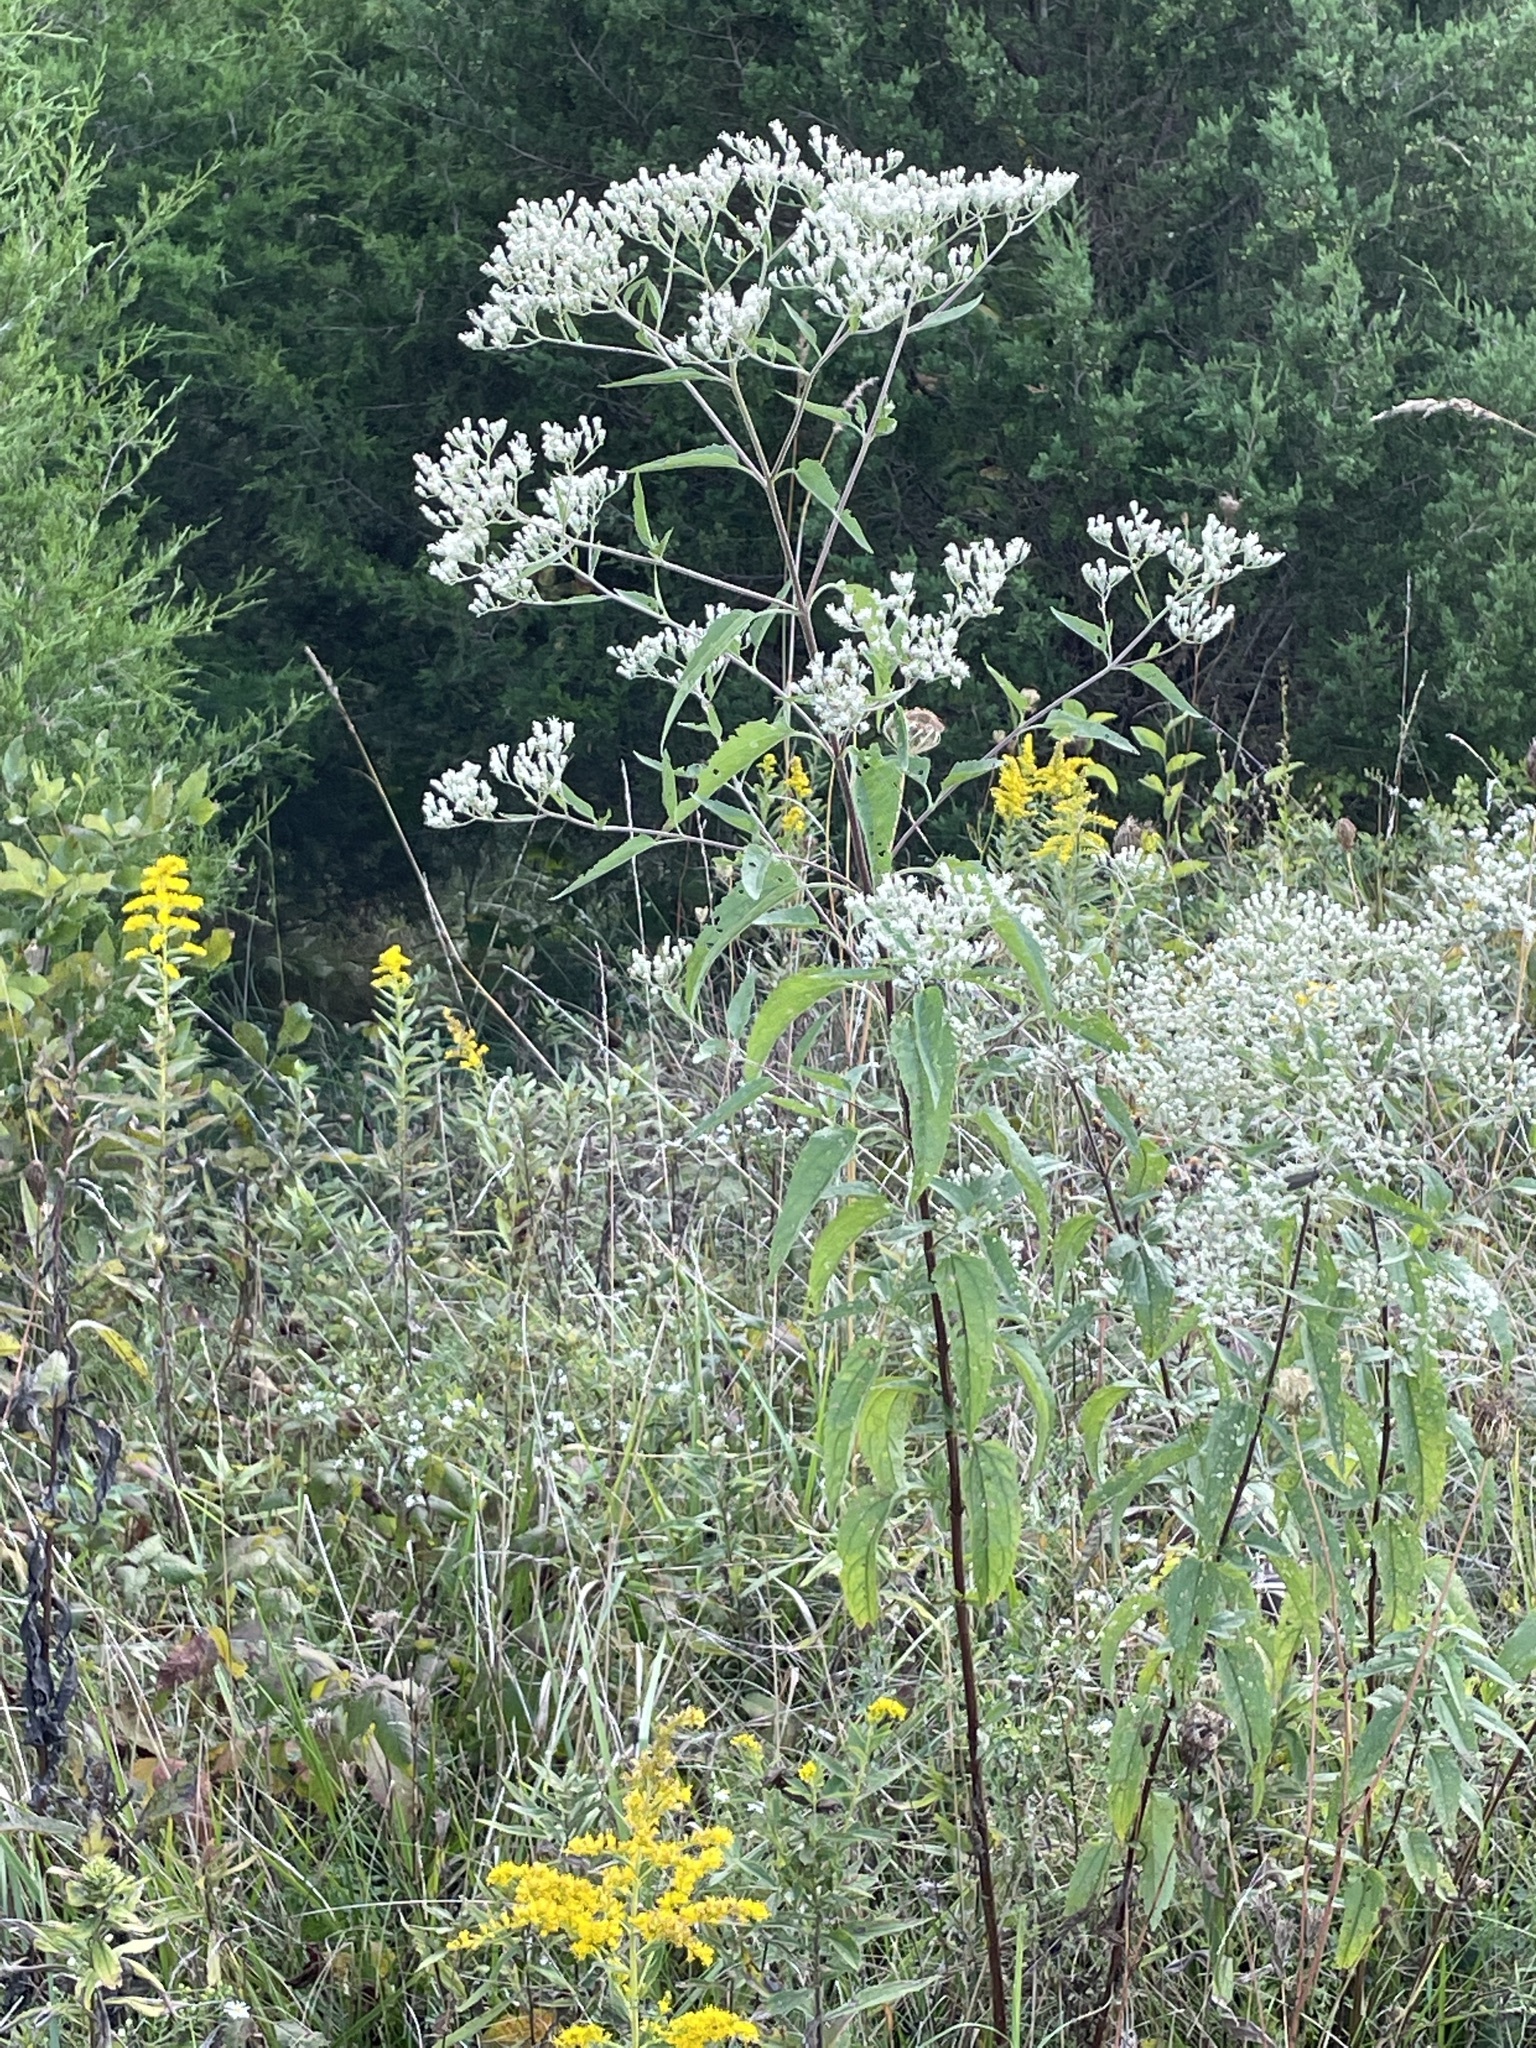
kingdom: Plantae
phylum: Tracheophyta
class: Magnoliopsida
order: Asterales
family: Asteraceae
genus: Eupatorium
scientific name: Eupatorium serotinum
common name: Late boneset
